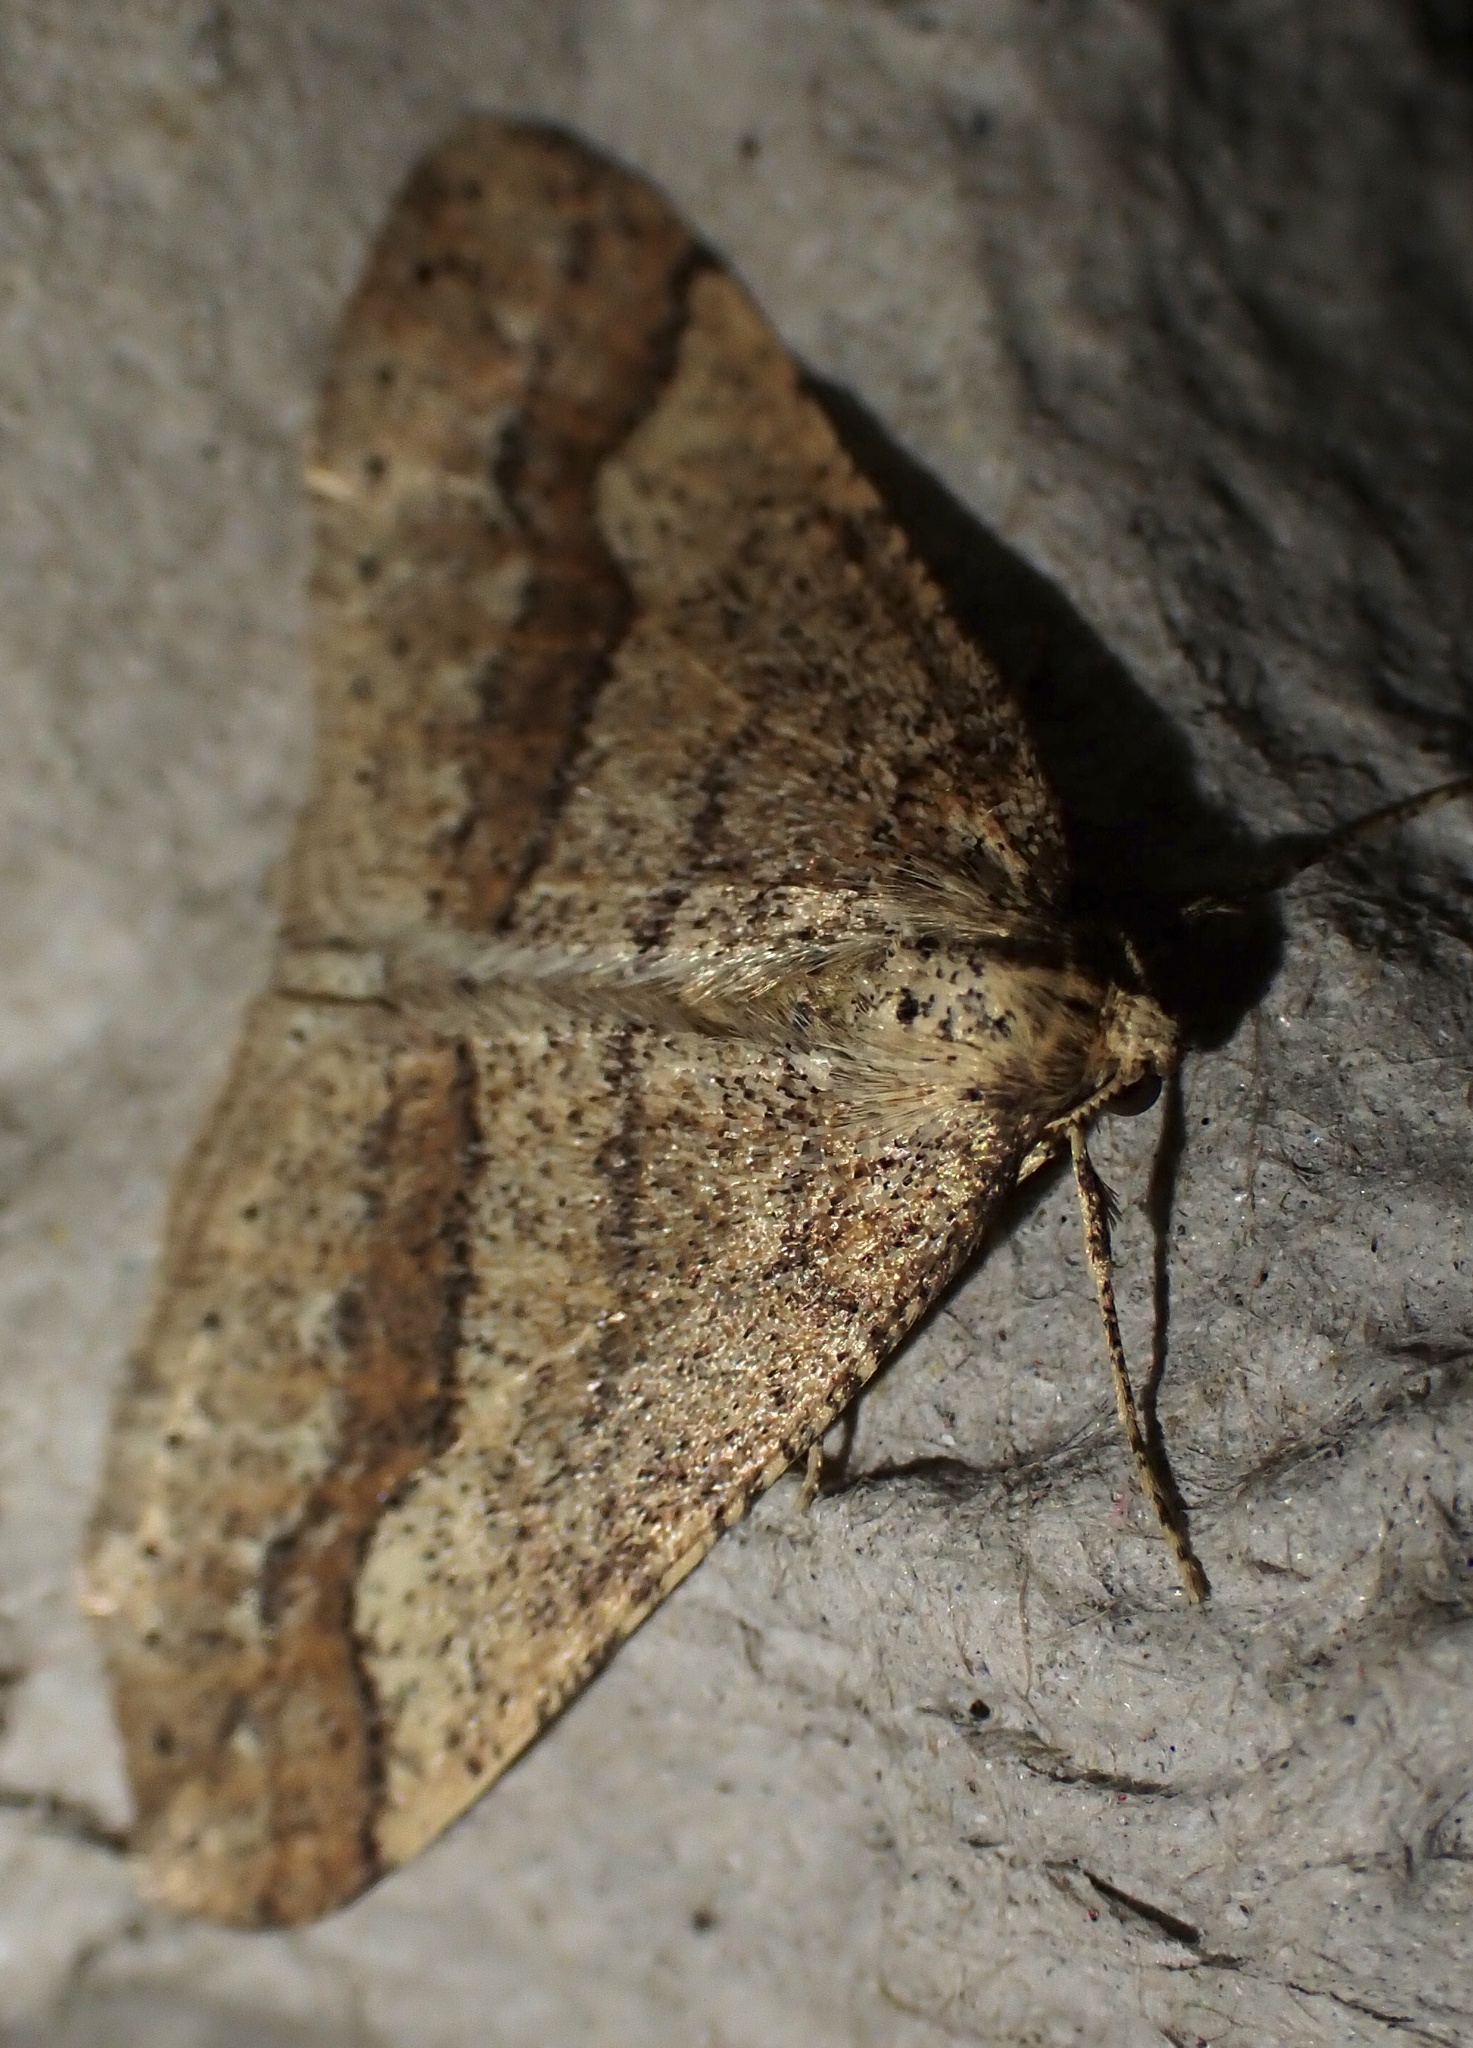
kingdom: Animalia
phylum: Arthropoda
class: Insecta
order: Lepidoptera
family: Geometridae
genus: Agriopis
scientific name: Agriopis marginaria
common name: Dotted border
